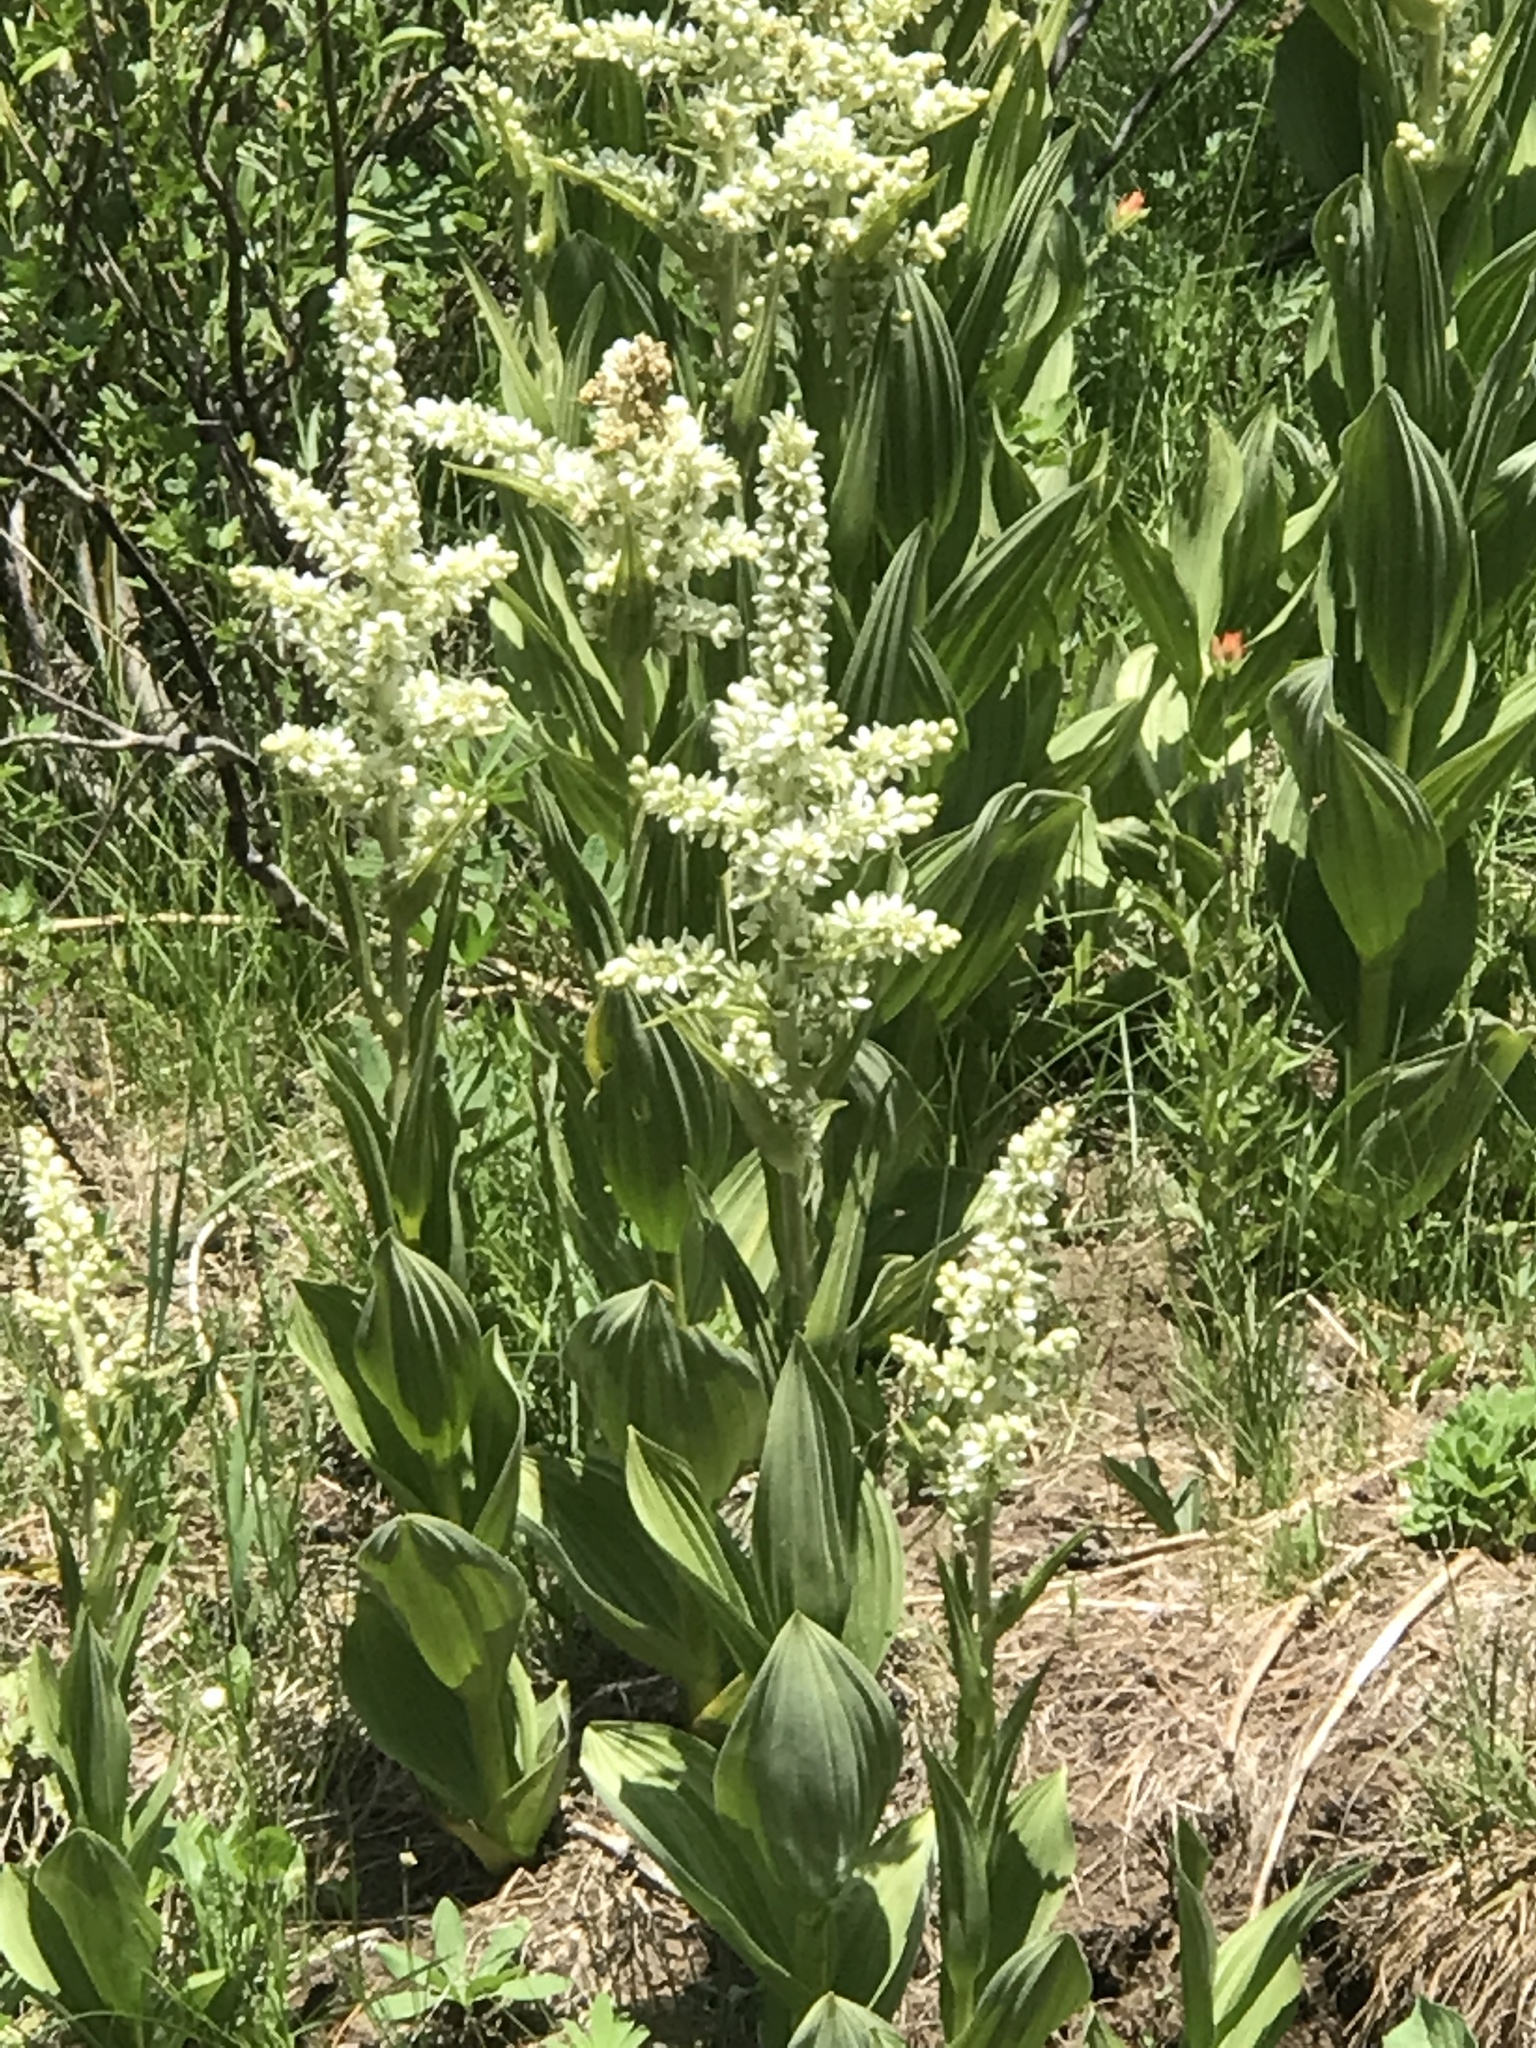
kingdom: Plantae
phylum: Tracheophyta
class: Liliopsida
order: Liliales
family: Melanthiaceae
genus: Veratrum
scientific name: Veratrum californicum
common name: California veratrum
